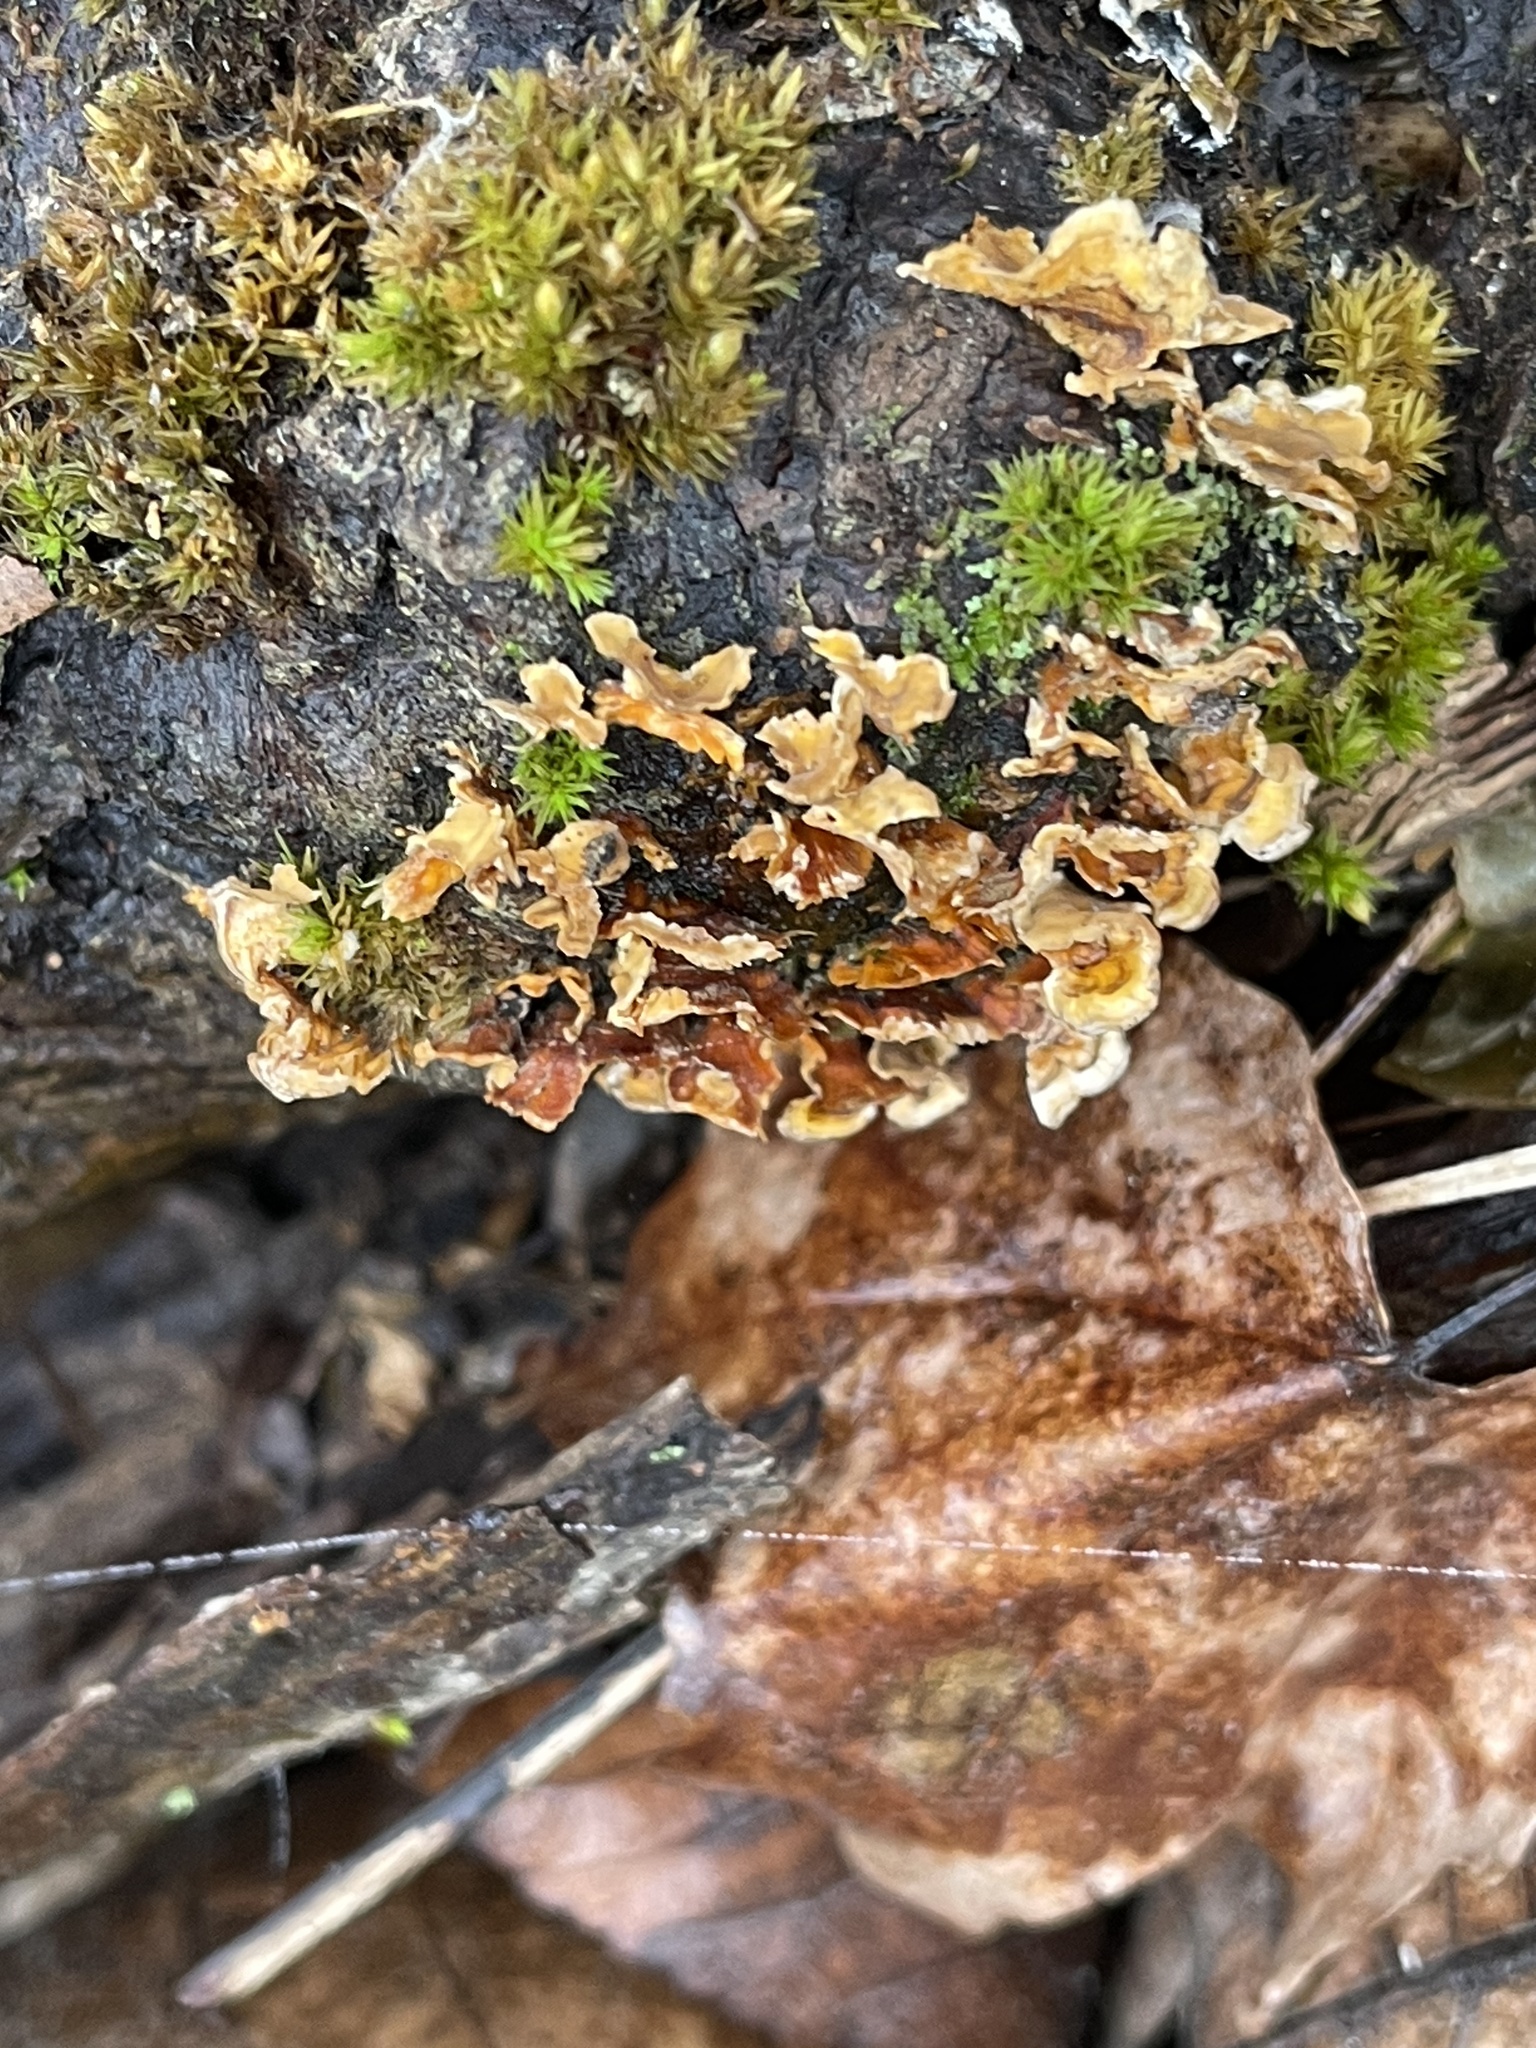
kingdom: Fungi
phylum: Basidiomycota
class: Agaricomycetes
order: Russulales
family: Stereaceae
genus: Stereum
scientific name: Stereum complicatum
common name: Crowded parchment
